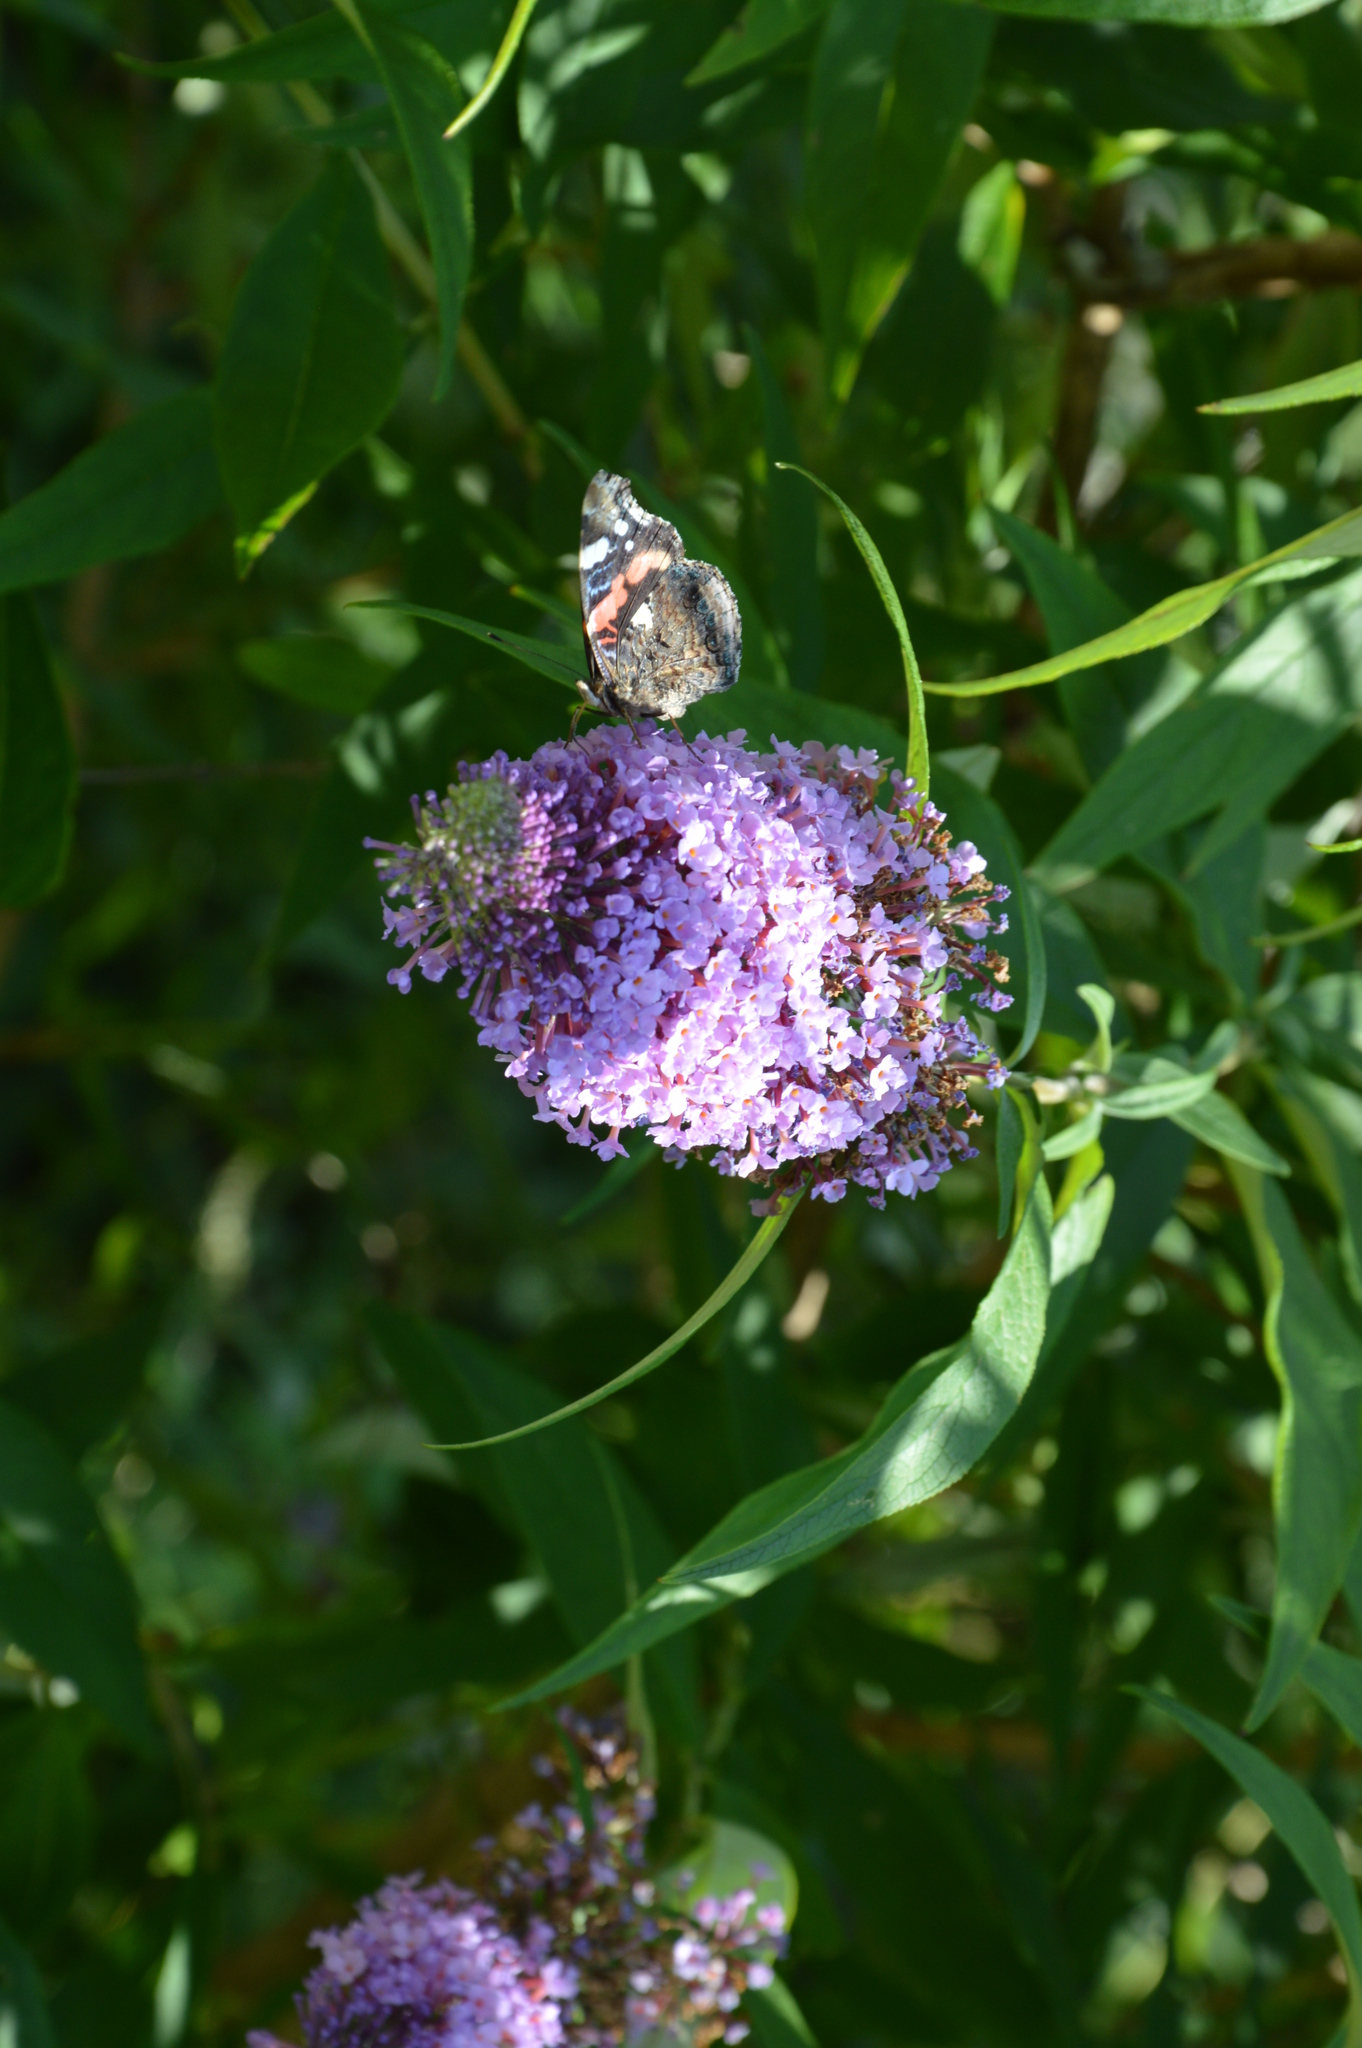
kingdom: Plantae
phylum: Tracheophyta
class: Magnoliopsida
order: Lamiales
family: Scrophulariaceae
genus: Buddleja
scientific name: Buddleja davidii
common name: Butterfly-bush
